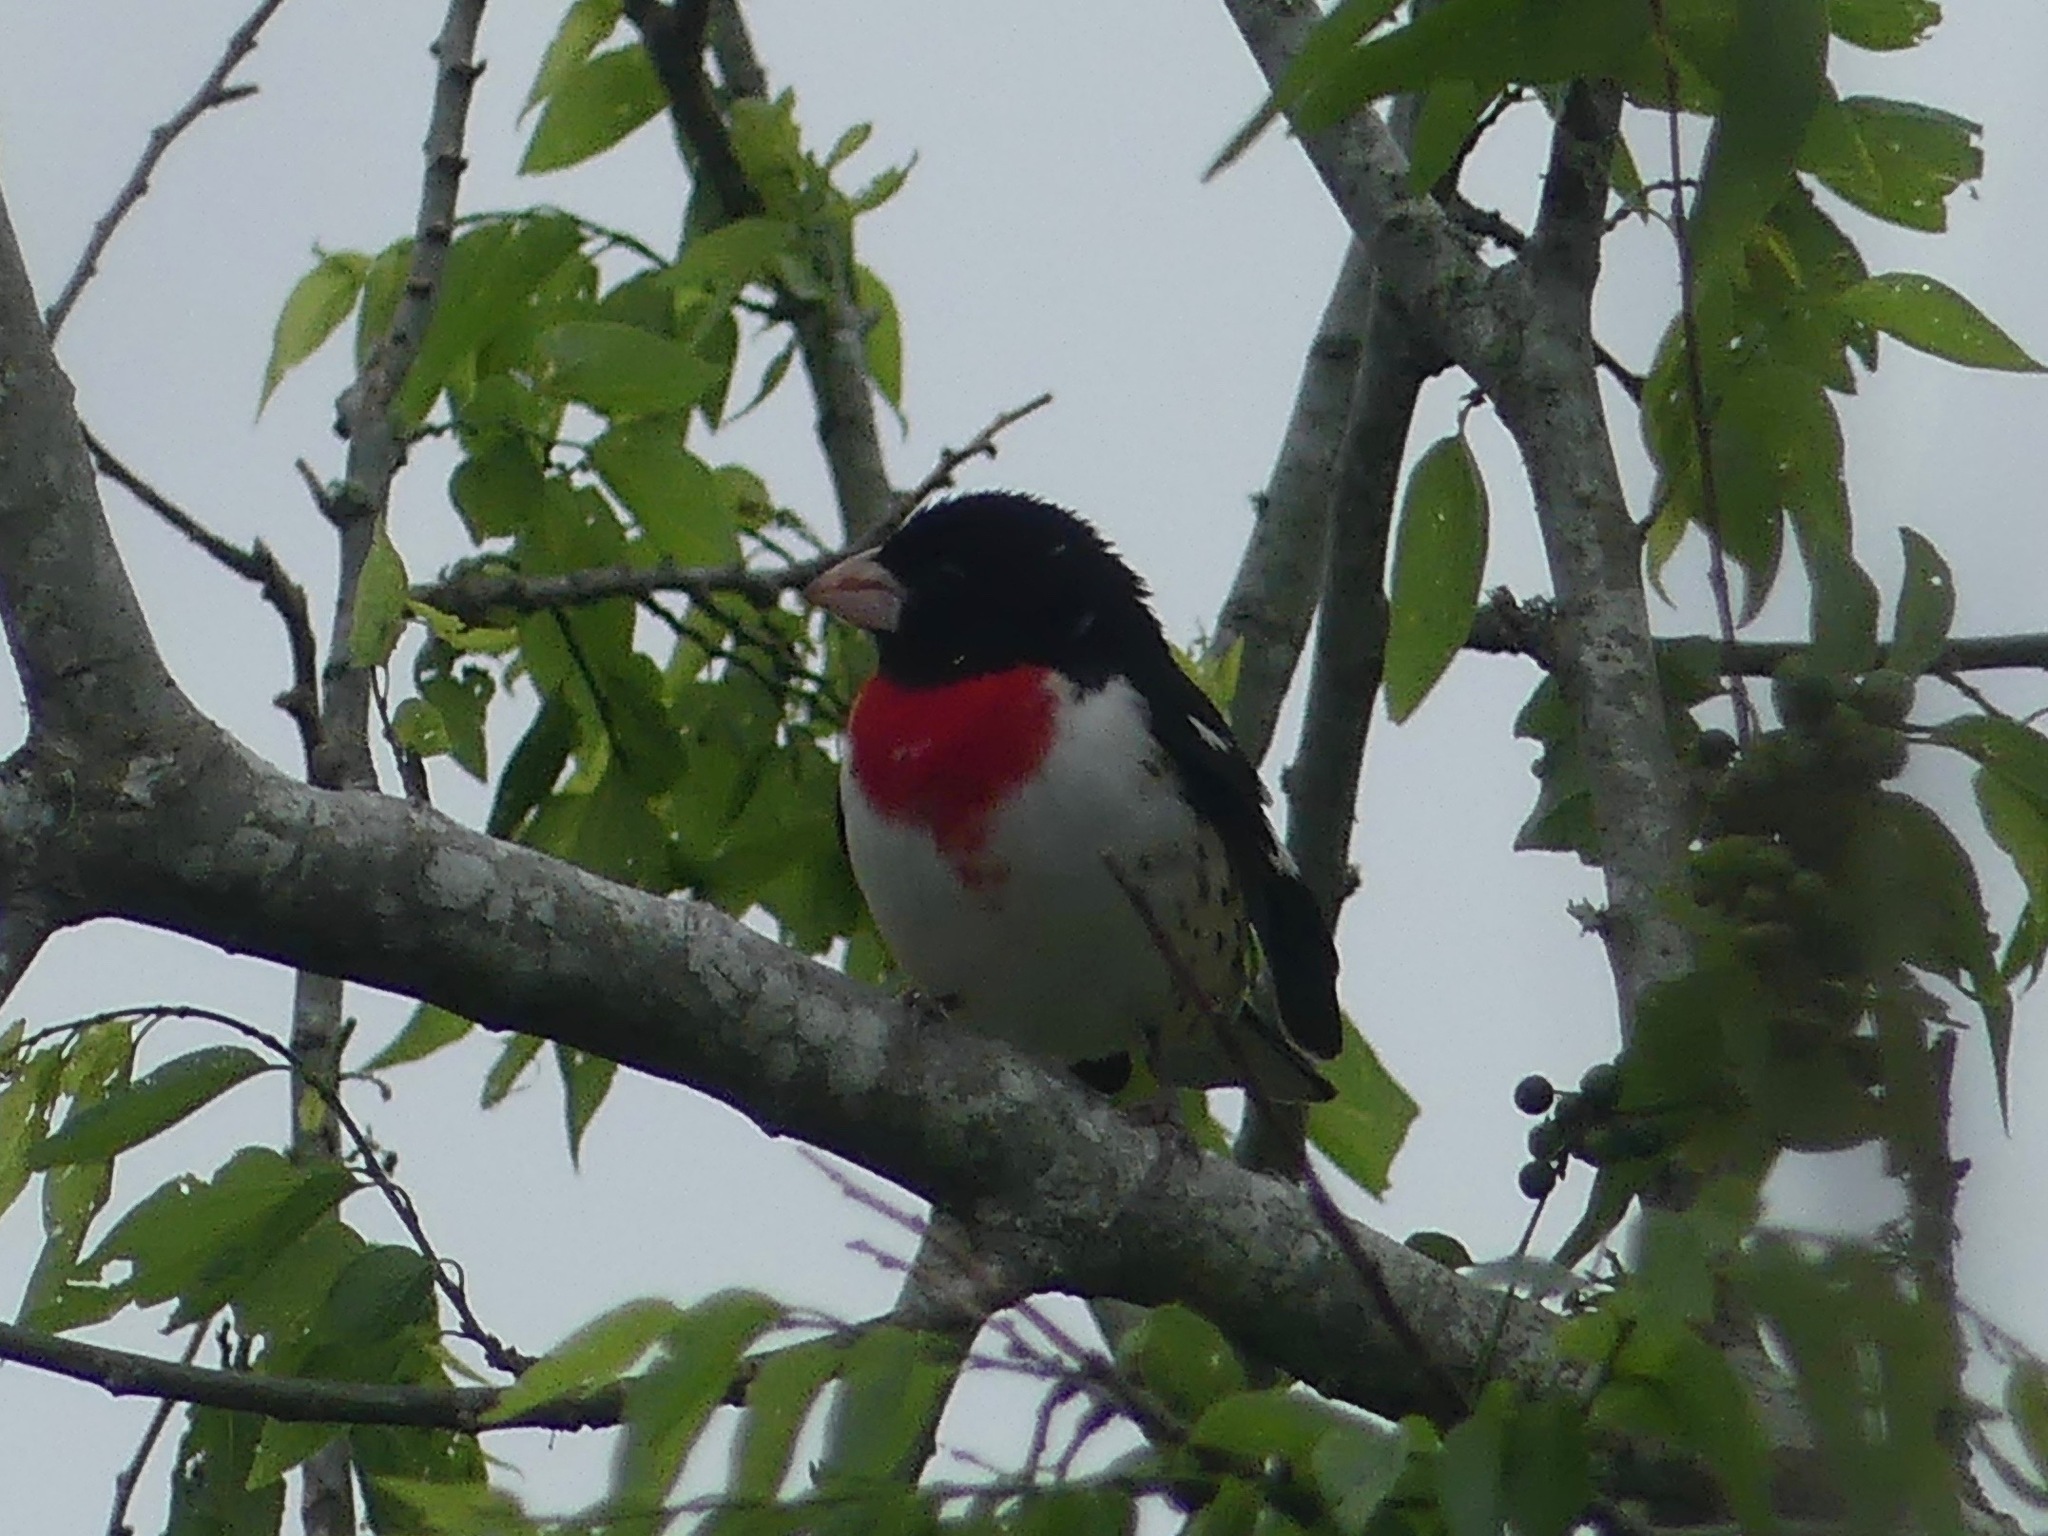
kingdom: Animalia
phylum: Chordata
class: Aves
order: Passeriformes
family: Cardinalidae
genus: Pheucticus
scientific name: Pheucticus ludovicianus
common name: Rose-breasted grosbeak
